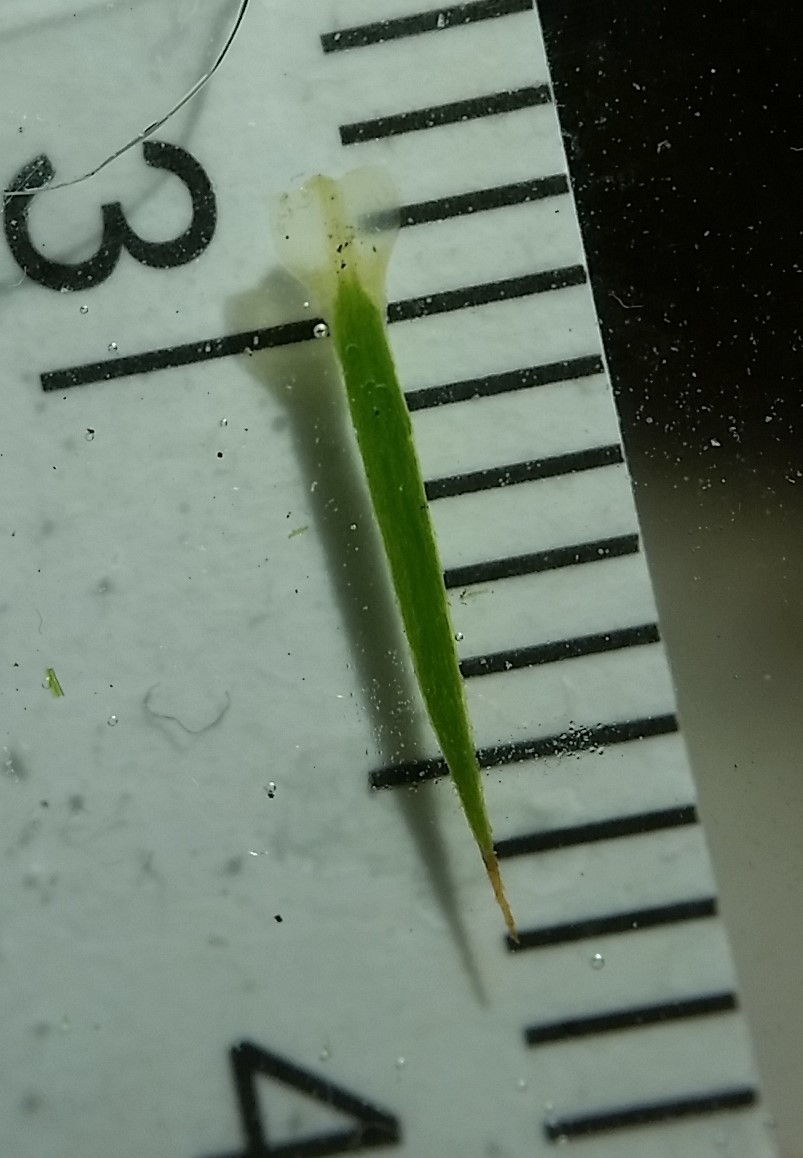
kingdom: Plantae
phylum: Bryophyta
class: Polytrichopsida
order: Polytrichales
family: Polytrichaceae
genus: Polytrichum
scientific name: Polytrichum ohioense
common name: Ohio polytrichum moss
